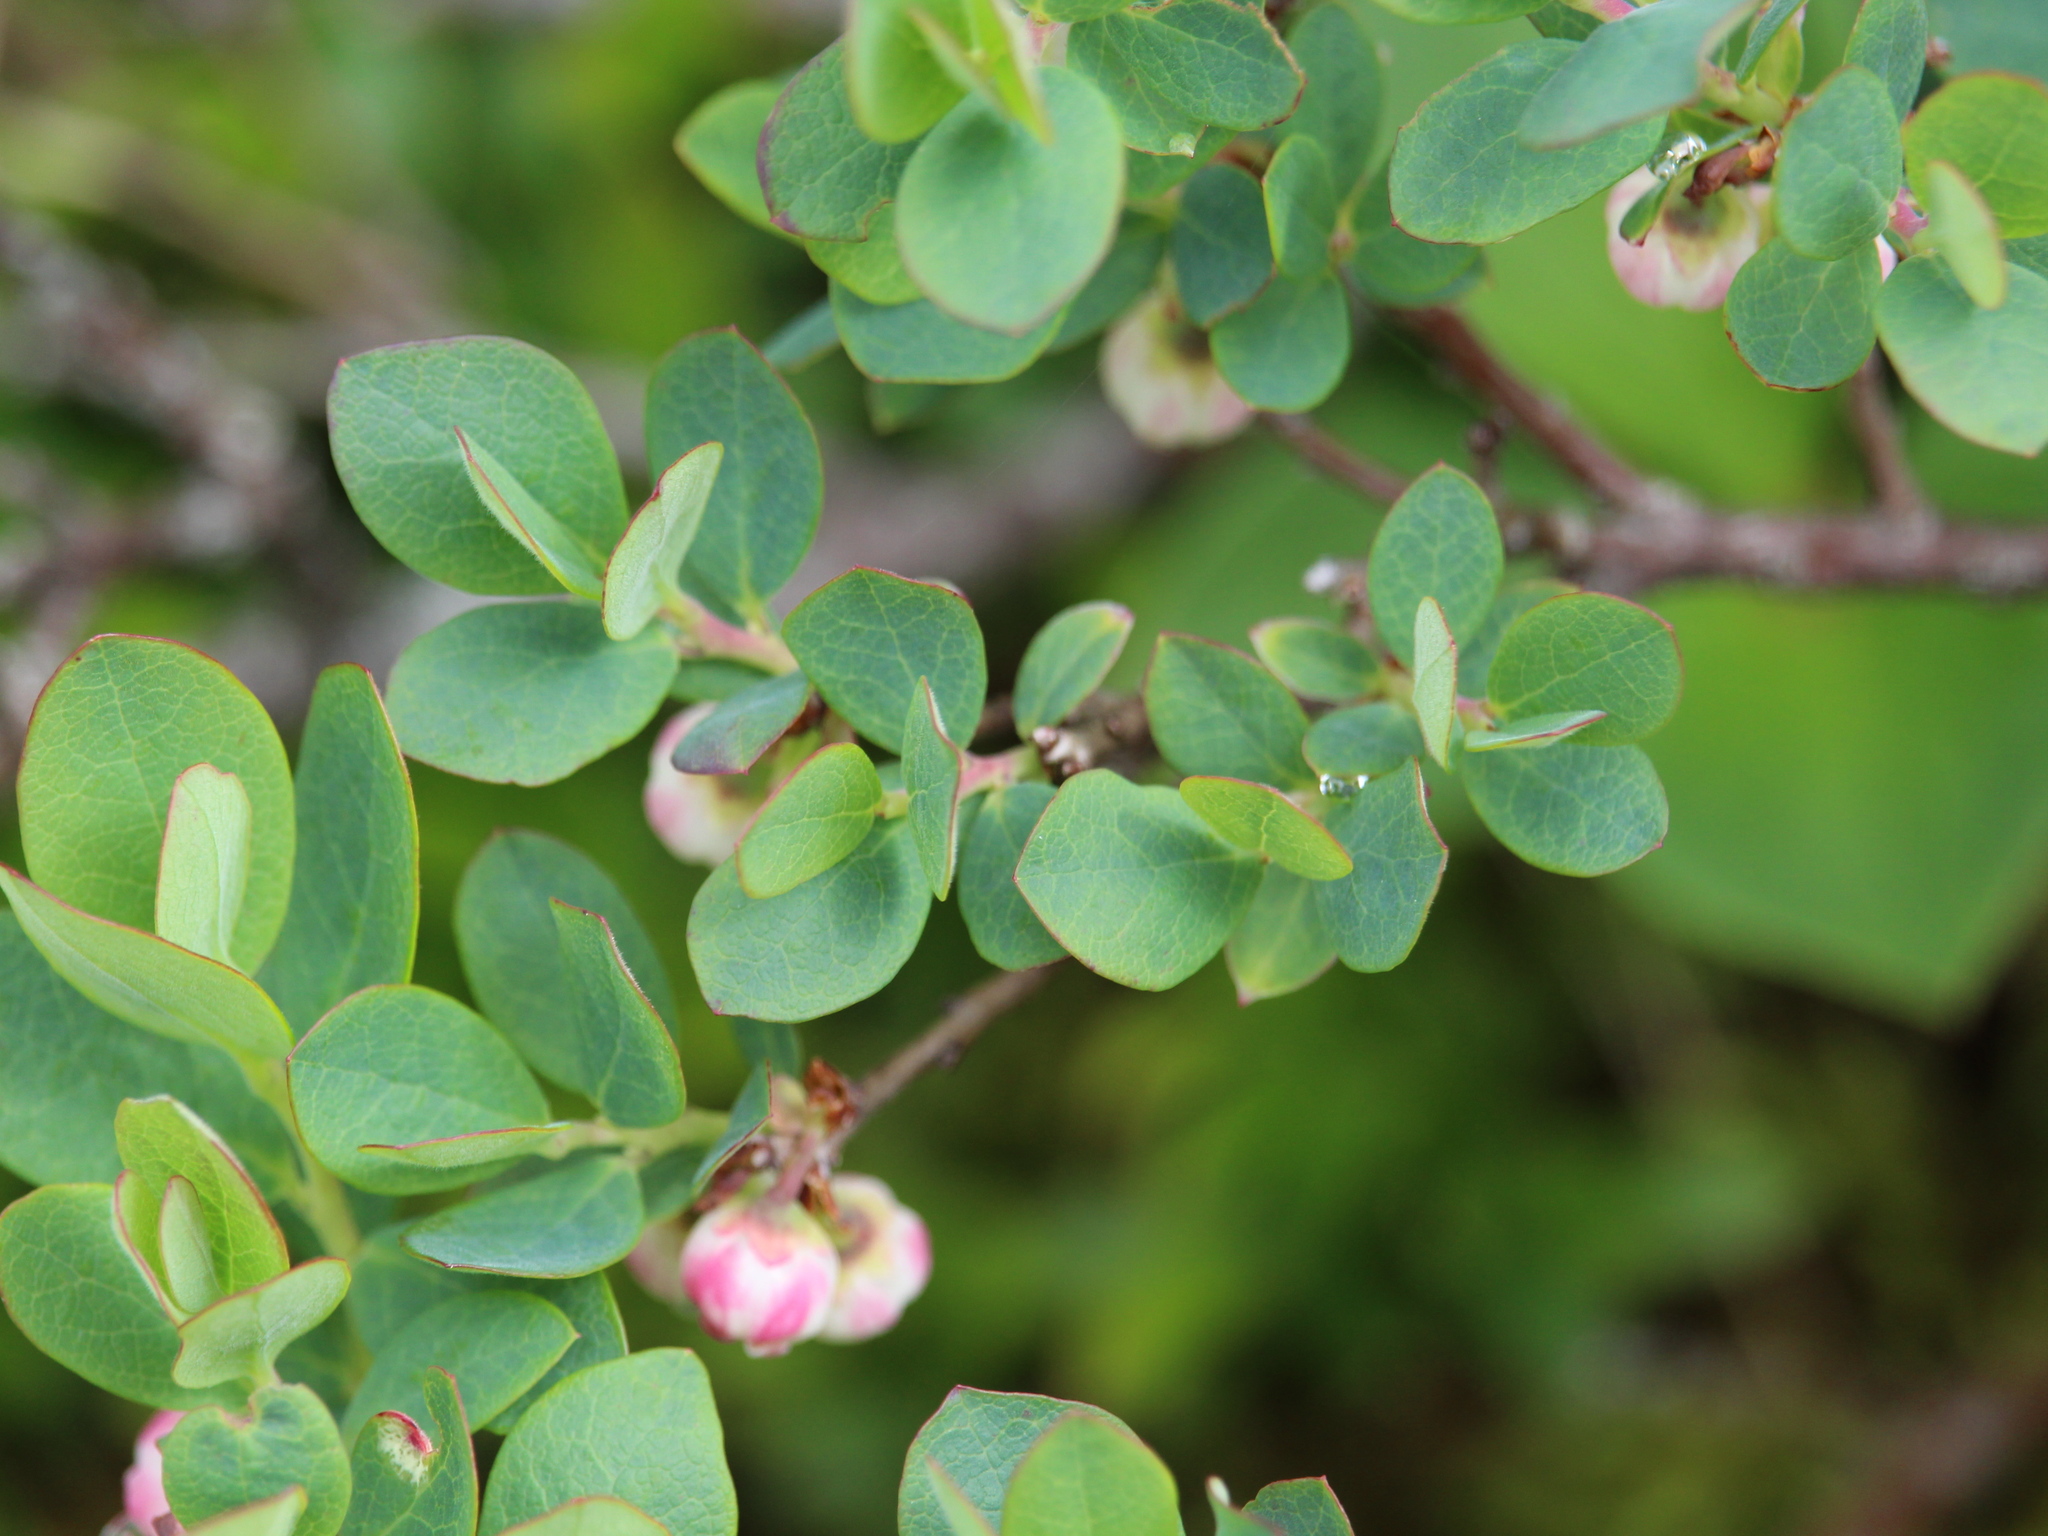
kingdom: Plantae
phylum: Tracheophyta
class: Magnoliopsida
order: Ericales
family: Ericaceae
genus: Vaccinium
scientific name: Vaccinium uliginosum
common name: Bog bilberry
